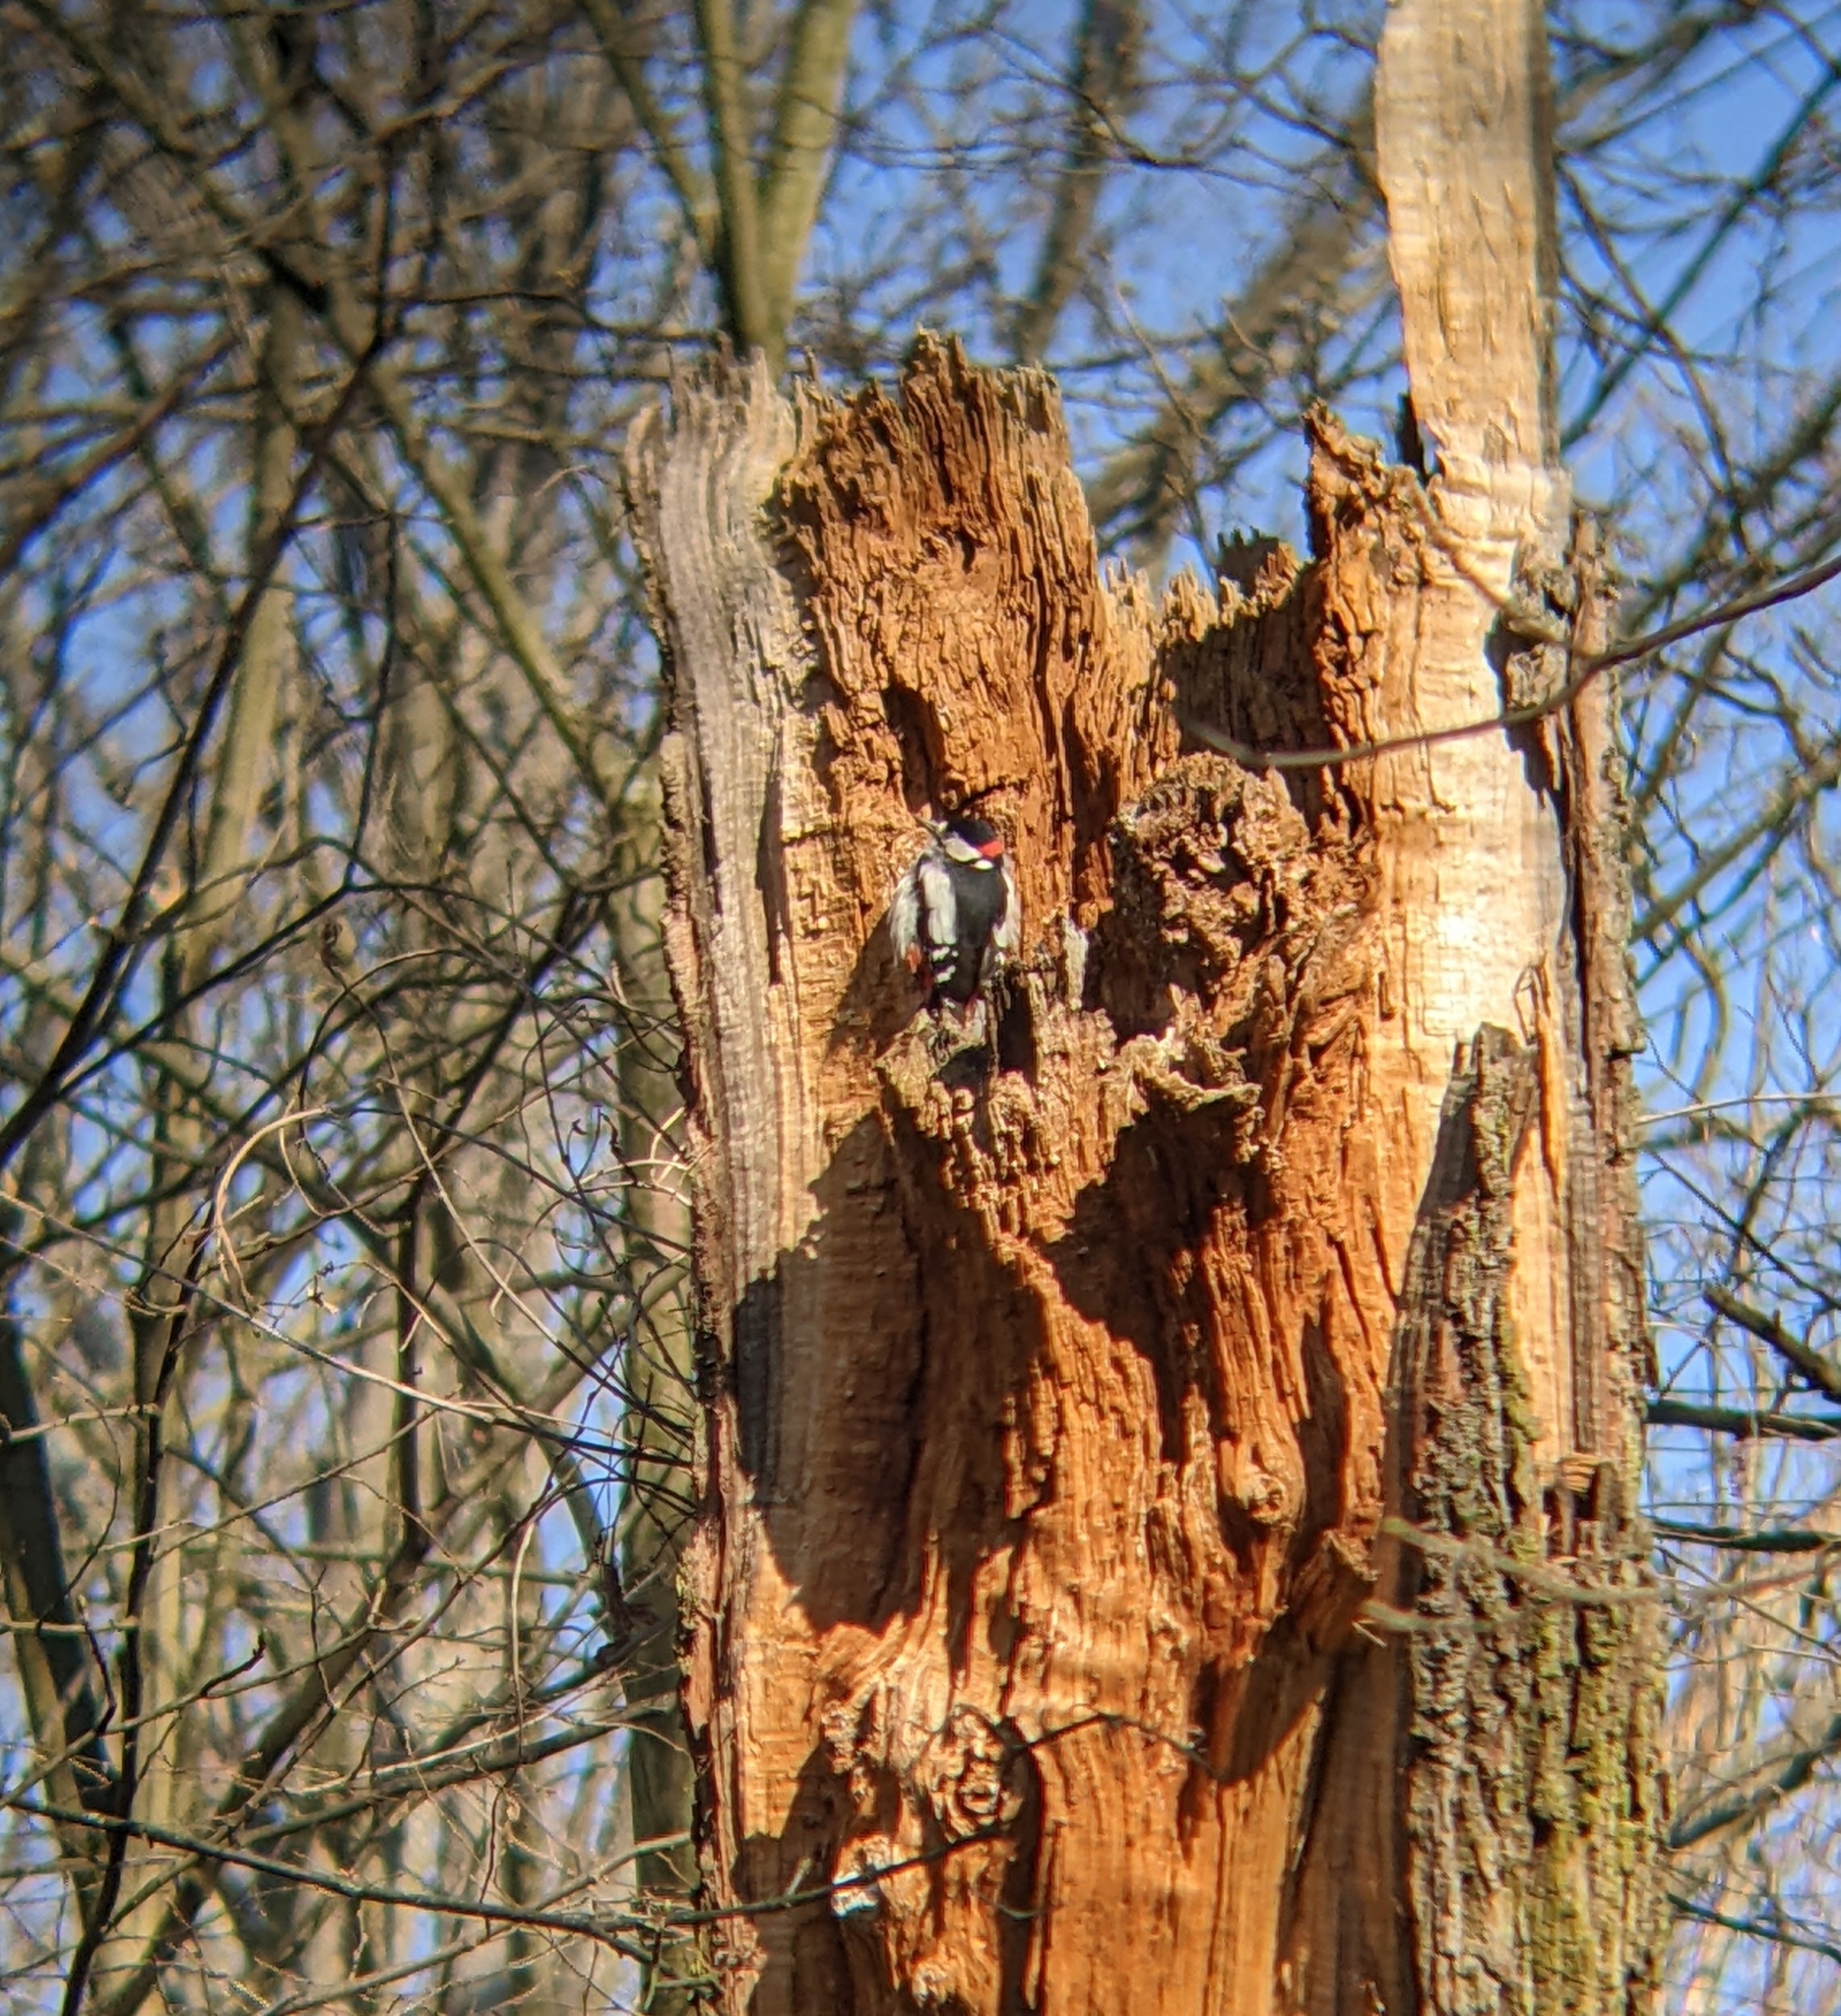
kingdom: Animalia
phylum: Chordata
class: Aves
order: Piciformes
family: Picidae
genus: Dendrocopos
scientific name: Dendrocopos major
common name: Great spotted woodpecker
